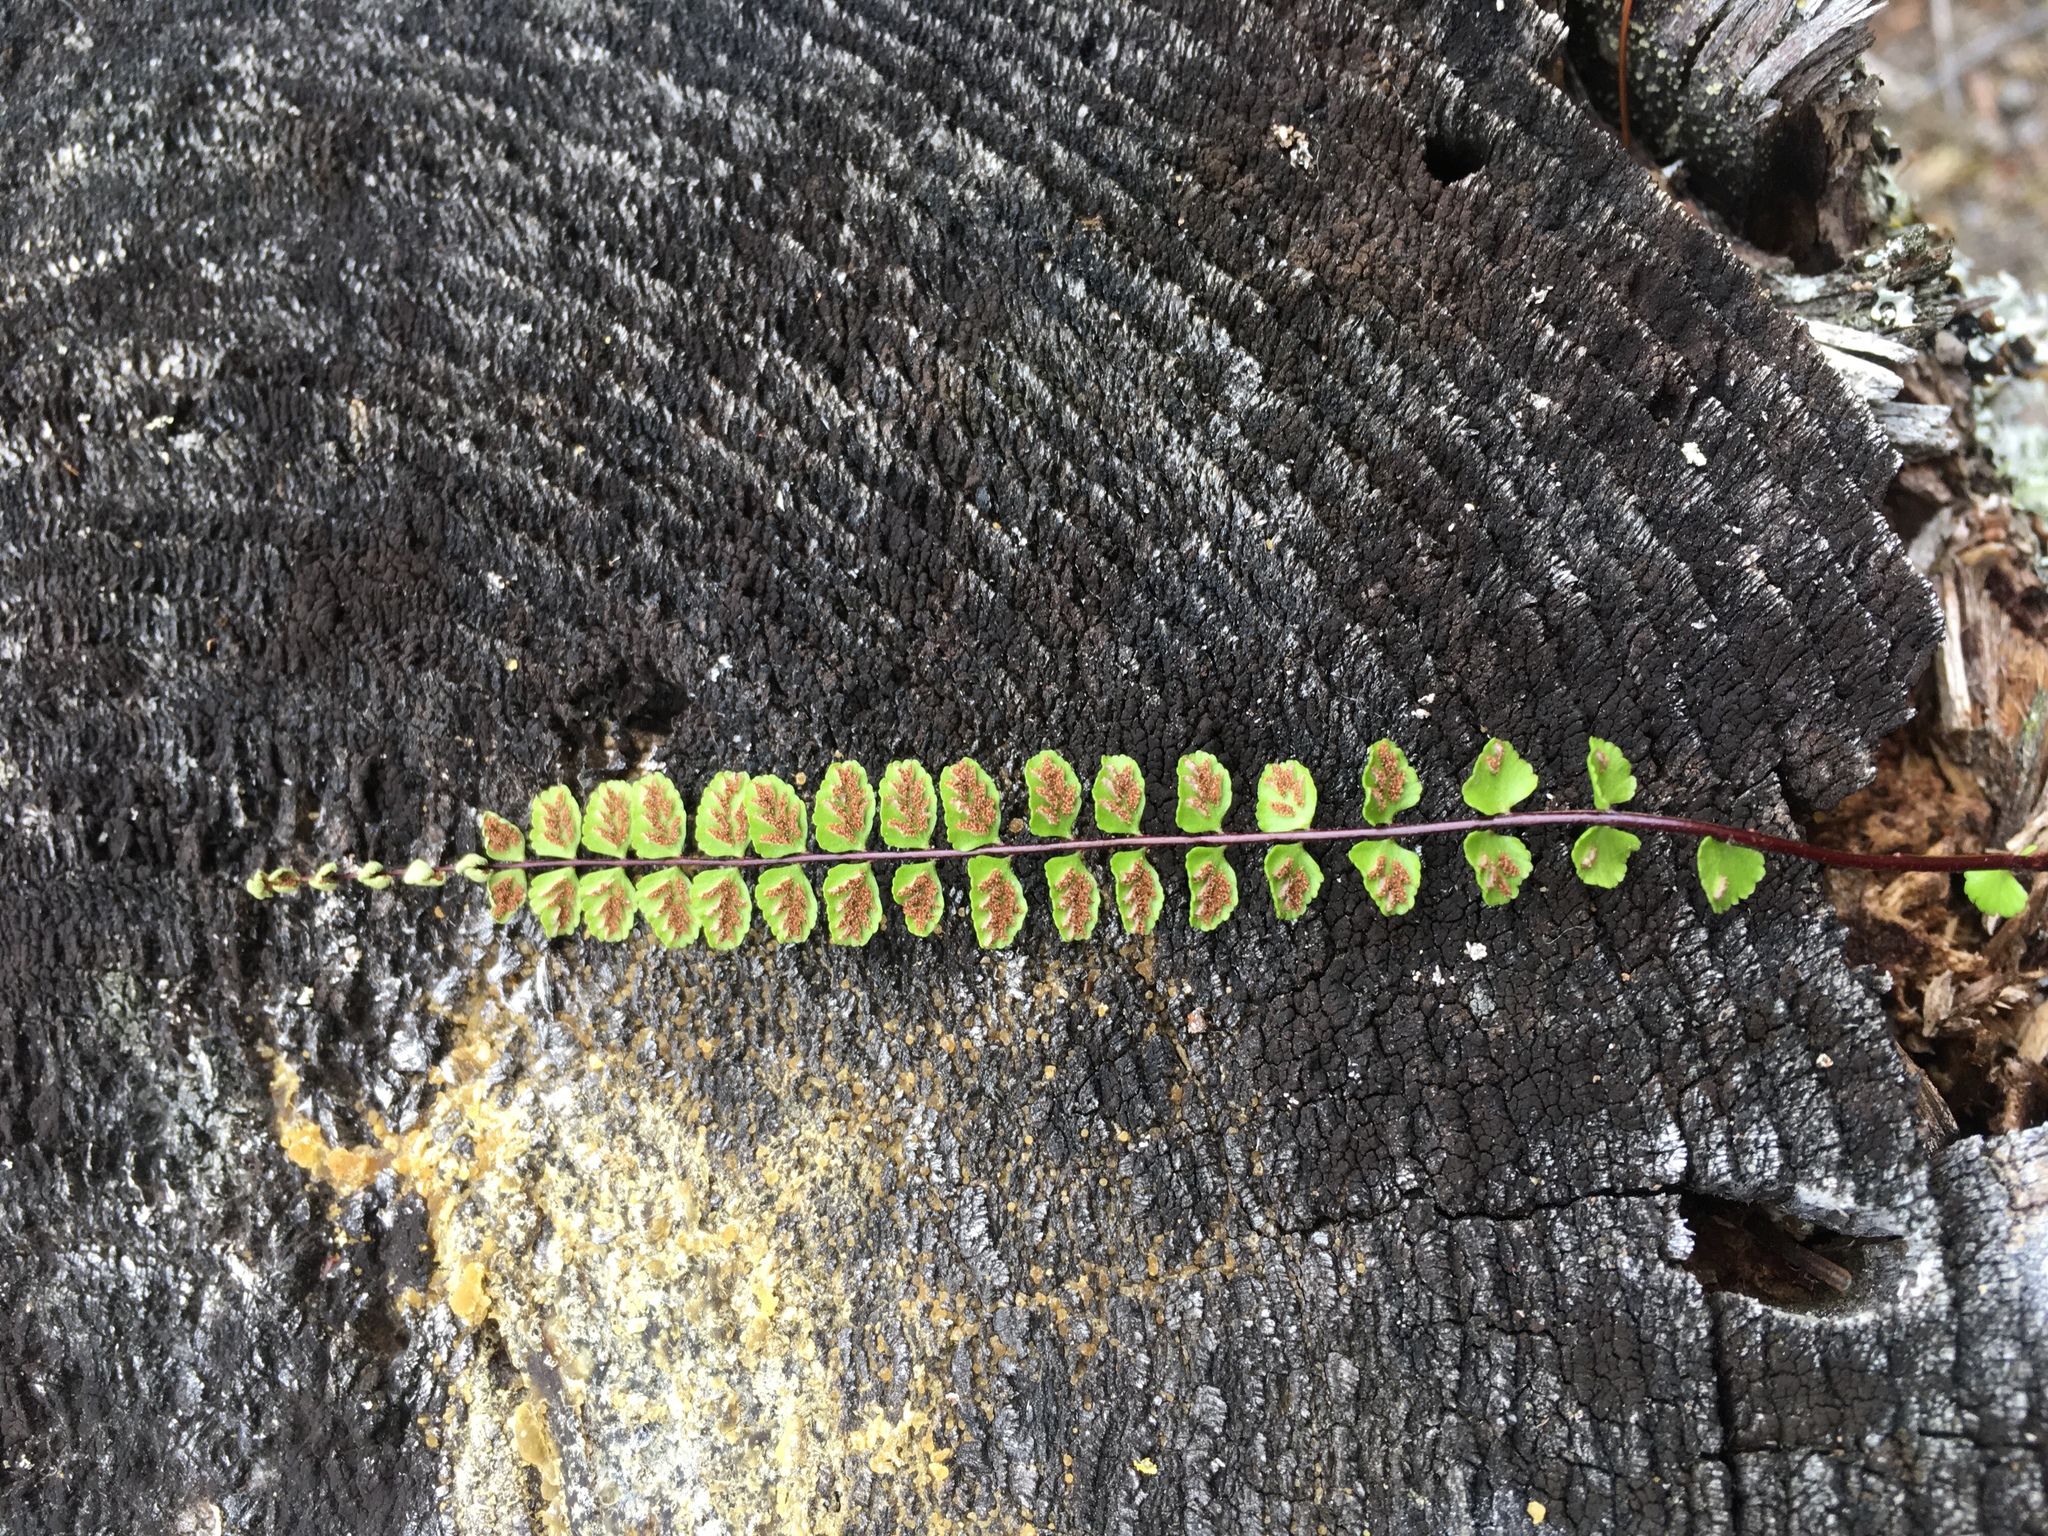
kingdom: Plantae
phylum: Tracheophyta
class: Polypodiopsida
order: Polypodiales
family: Aspleniaceae
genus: Asplenium
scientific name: Asplenium trichomanes
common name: Maidenhair spleenwort
